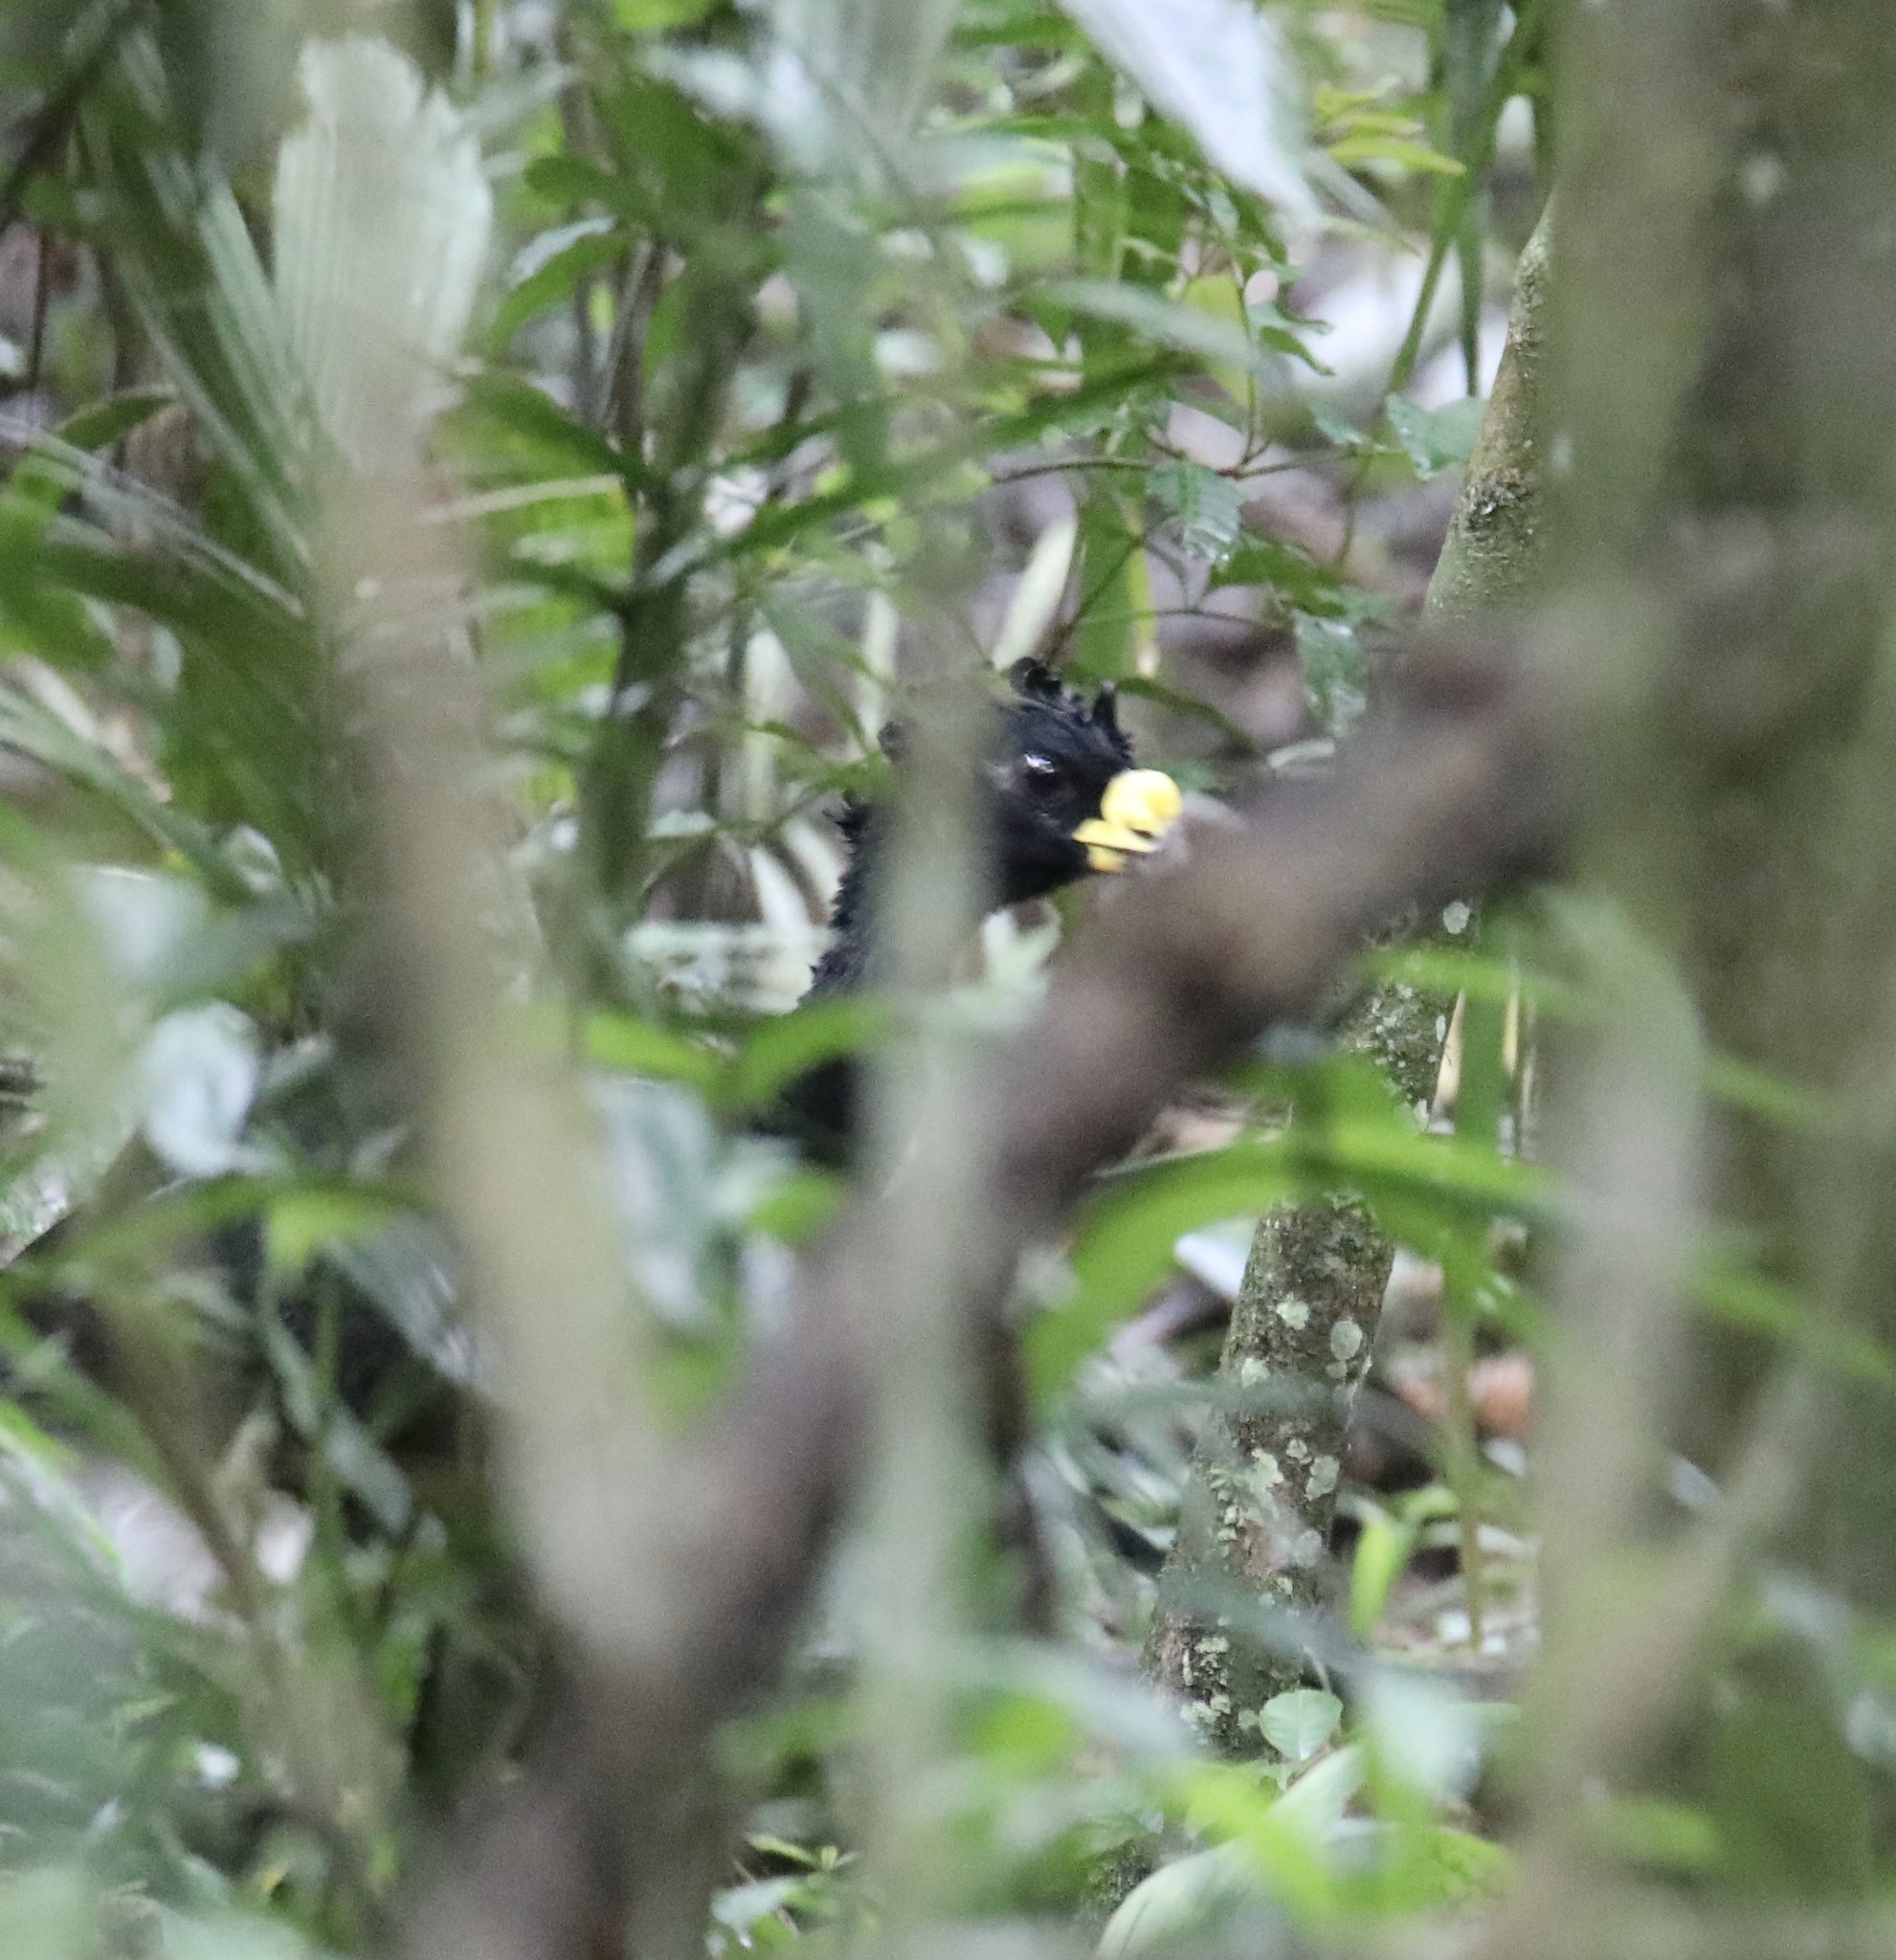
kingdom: Animalia
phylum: Chordata
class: Aves
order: Galliformes
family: Cracidae
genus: Crax
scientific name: Crax rubra
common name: Great curassow
